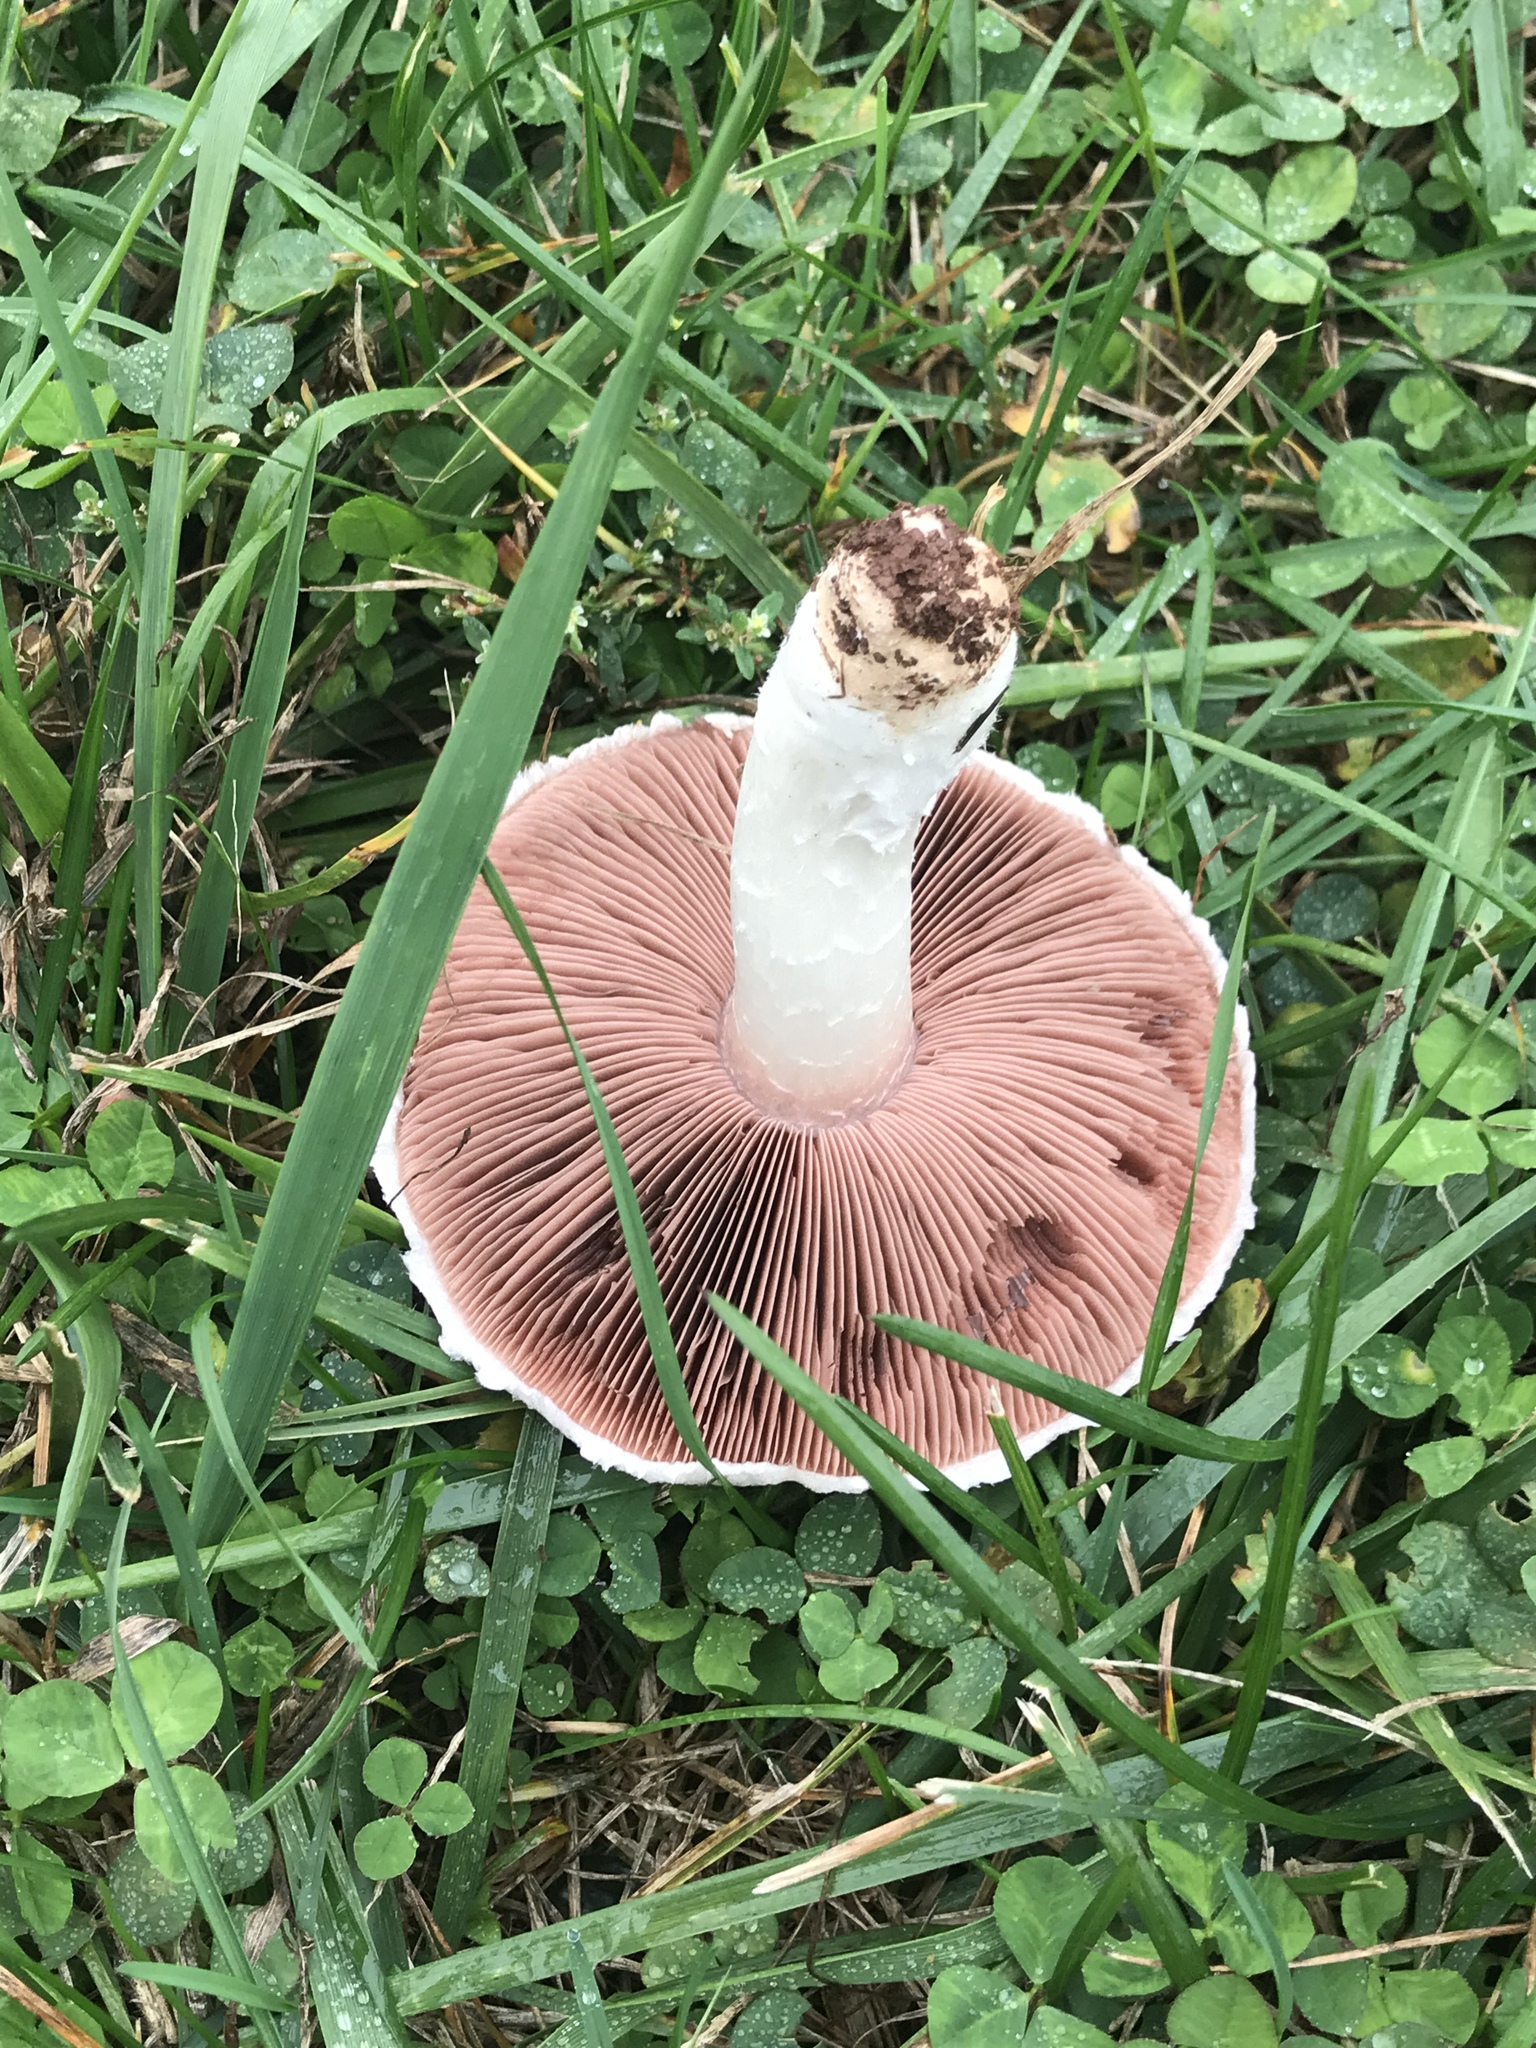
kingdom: Fungi
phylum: Basidiomycota
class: Agaricomycetes
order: Agaricales
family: Agaricaceae
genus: Agaricus
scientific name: Agaricus campestris
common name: Field mushroom
